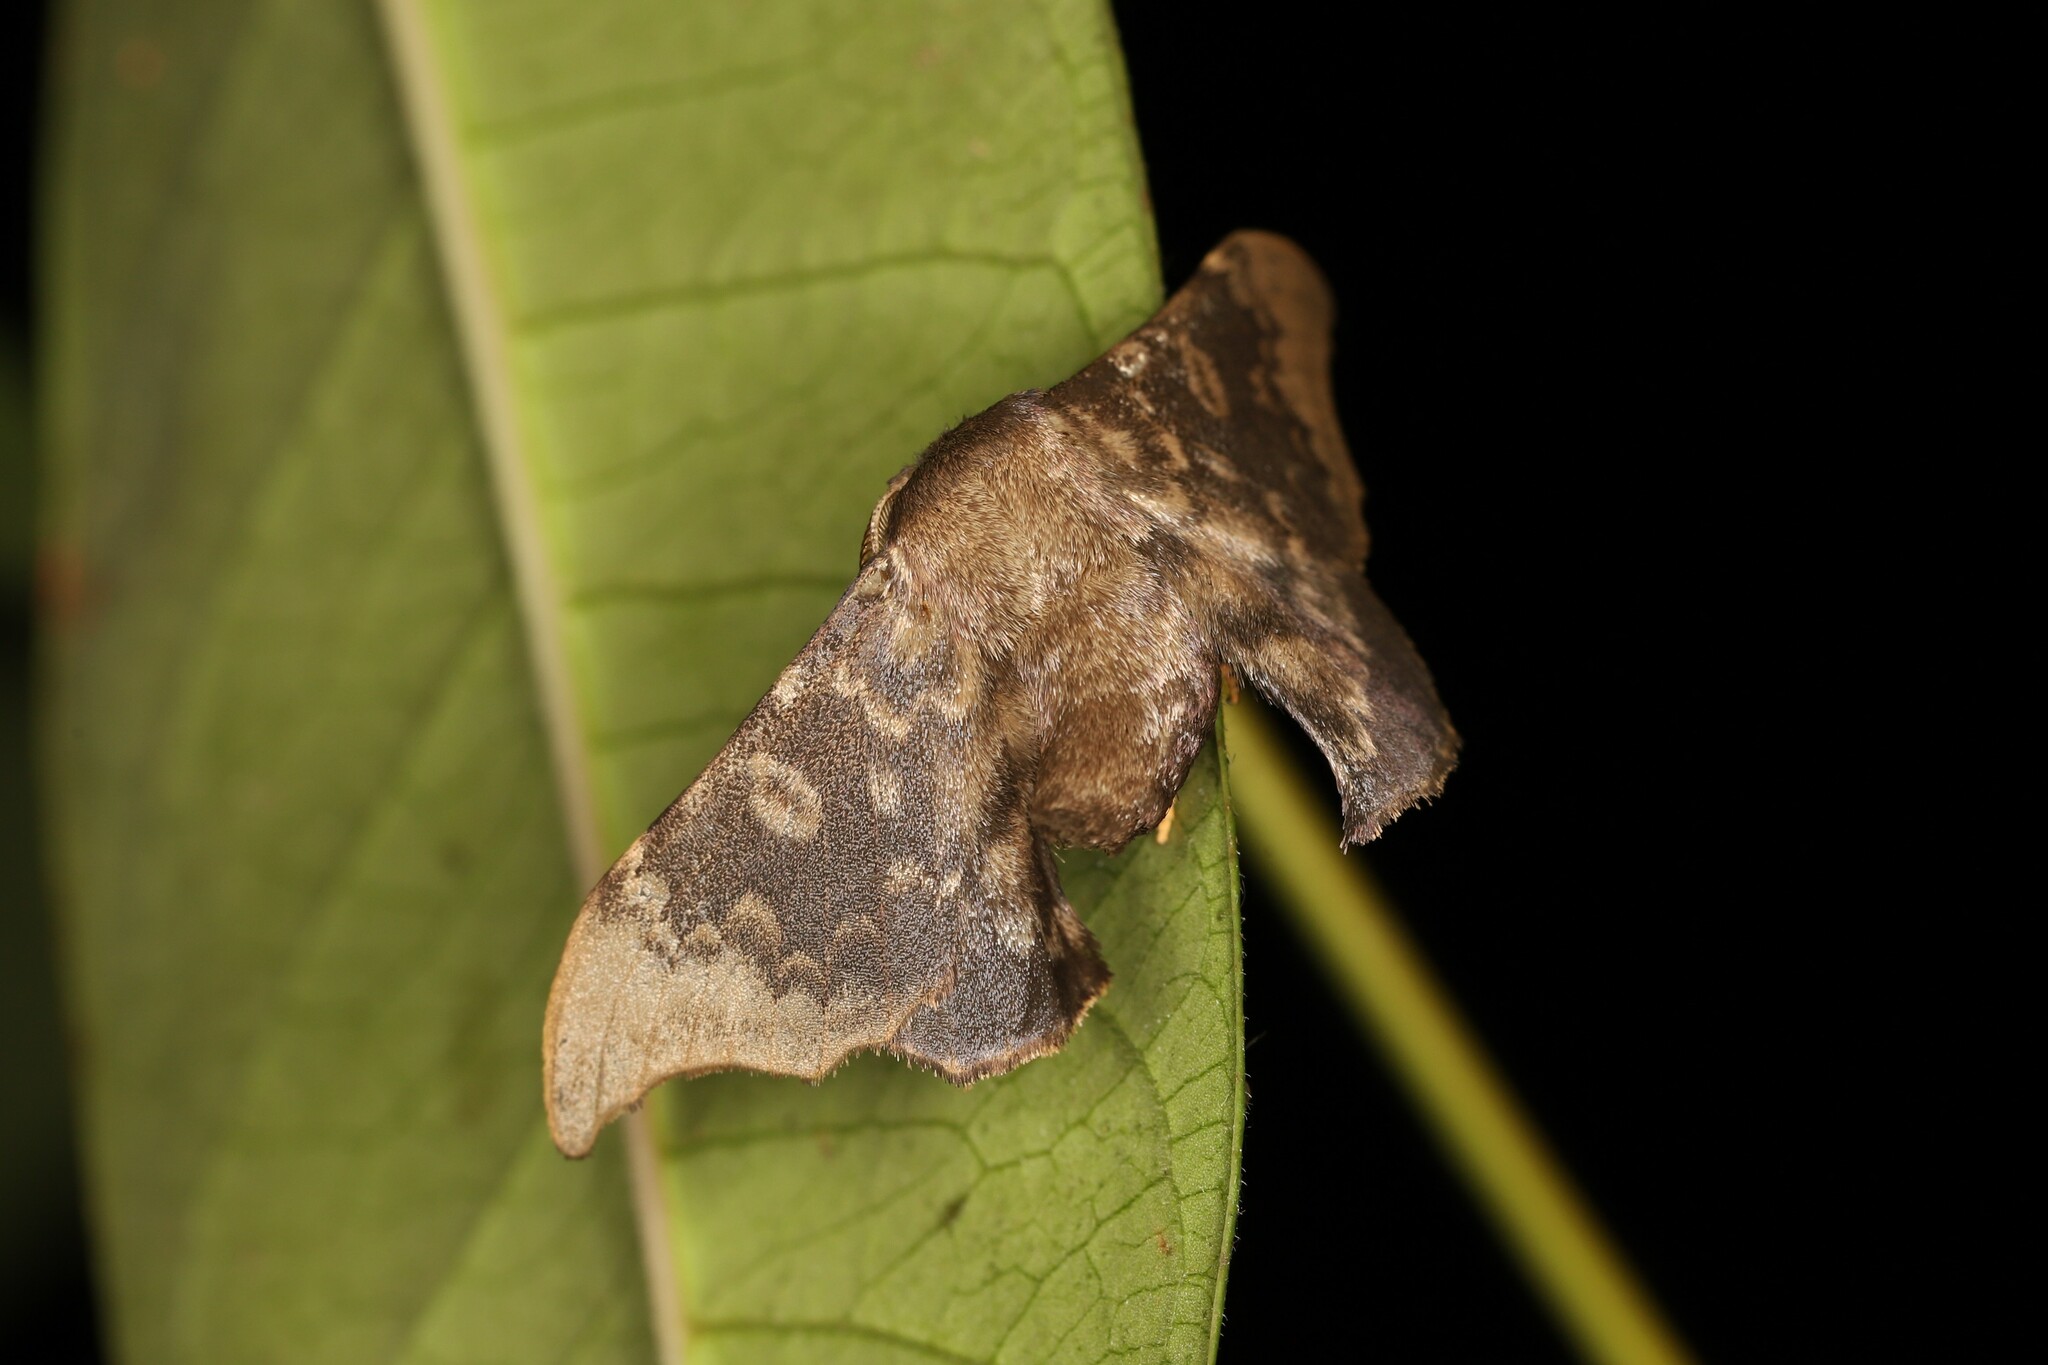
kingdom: Animalia
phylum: Arthropoda
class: Insecta
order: Lepidoptera
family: Mimallonidae
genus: Lacosoma
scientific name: Lacosoma syrinx
